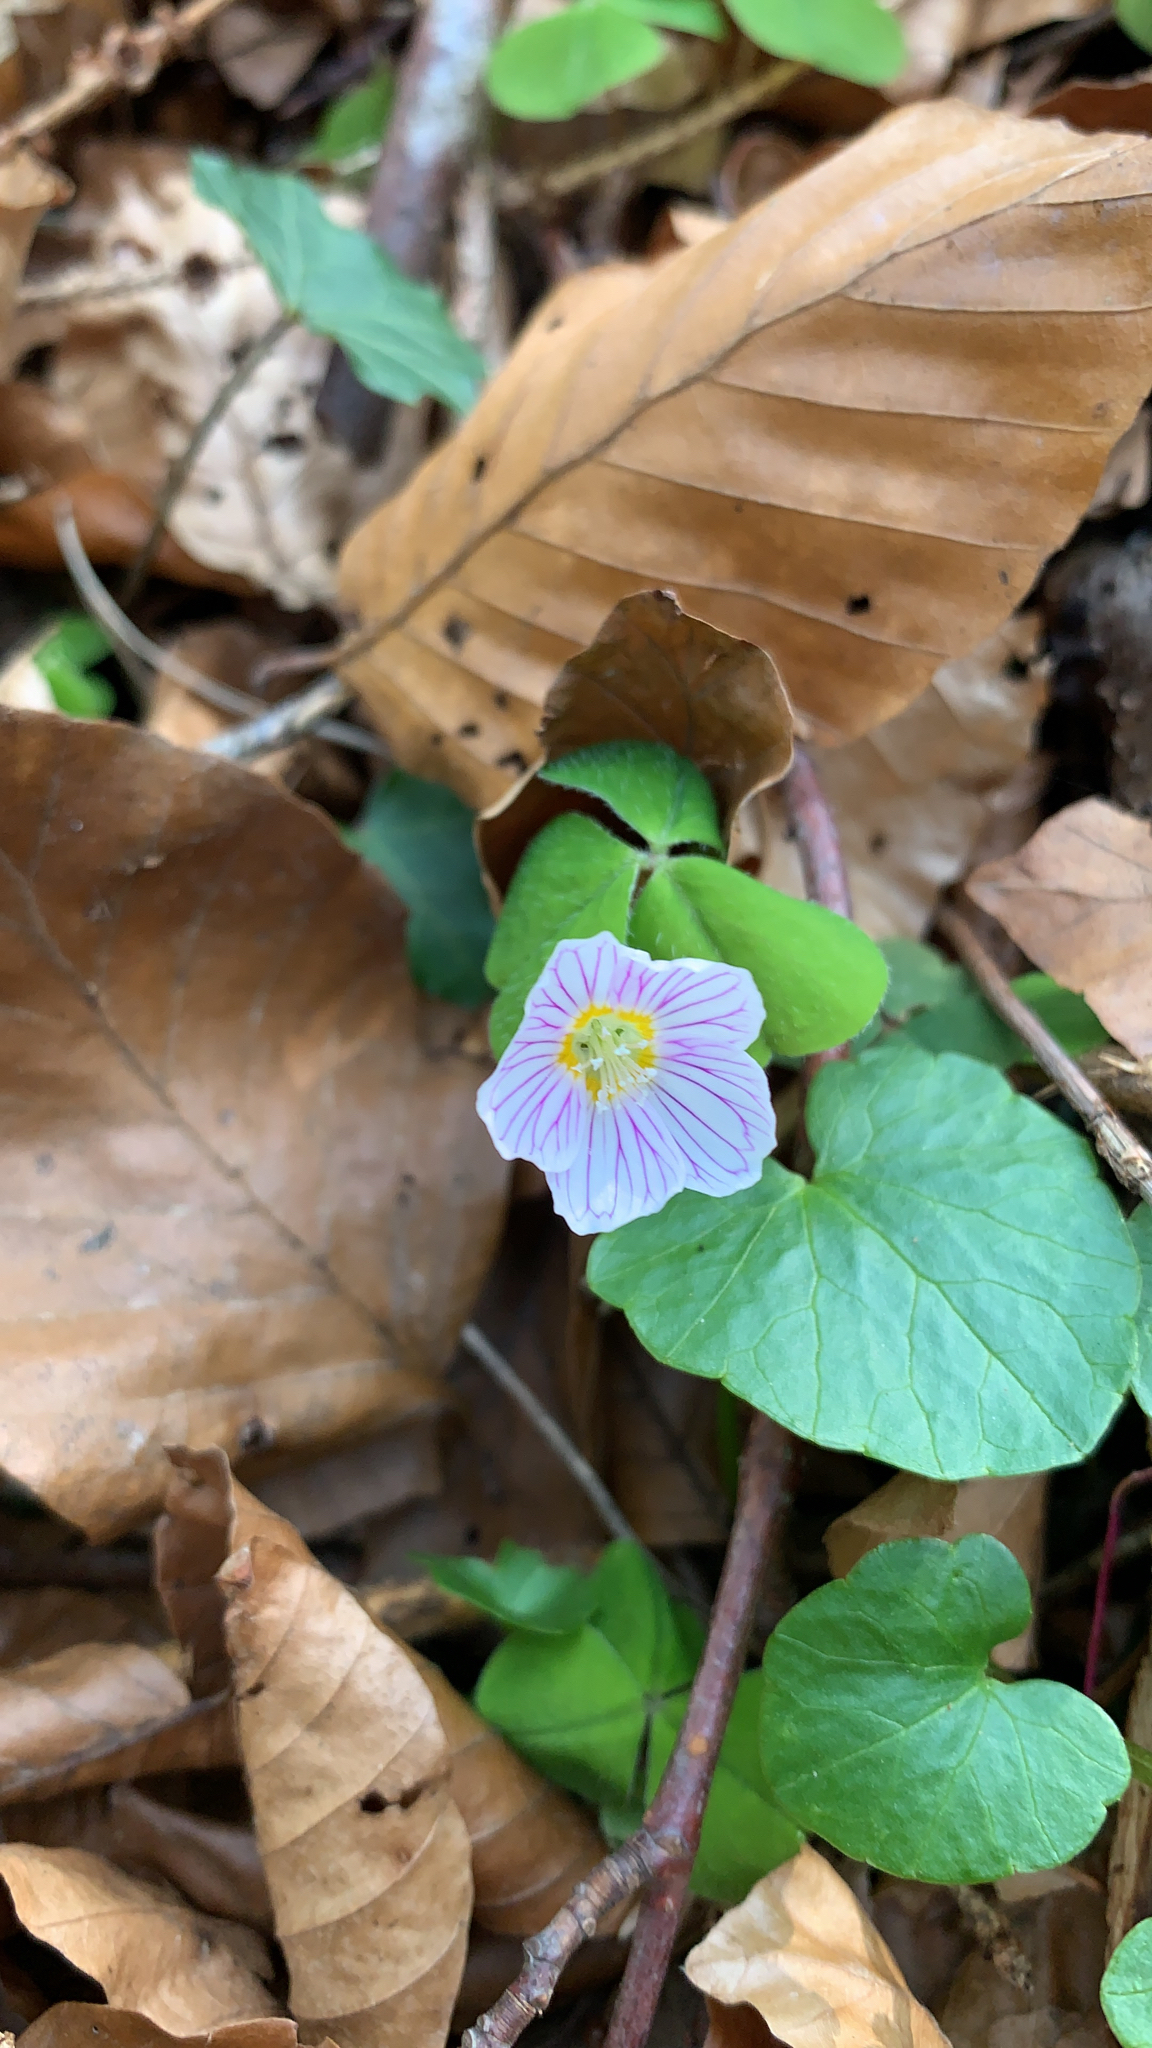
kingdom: Plantae
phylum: Tracheophyta
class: Magnoliopsida
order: Oxalidales
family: Oxalidaceae
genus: Oxalis
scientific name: Oxalis acetosella
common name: Wood-sorrel
